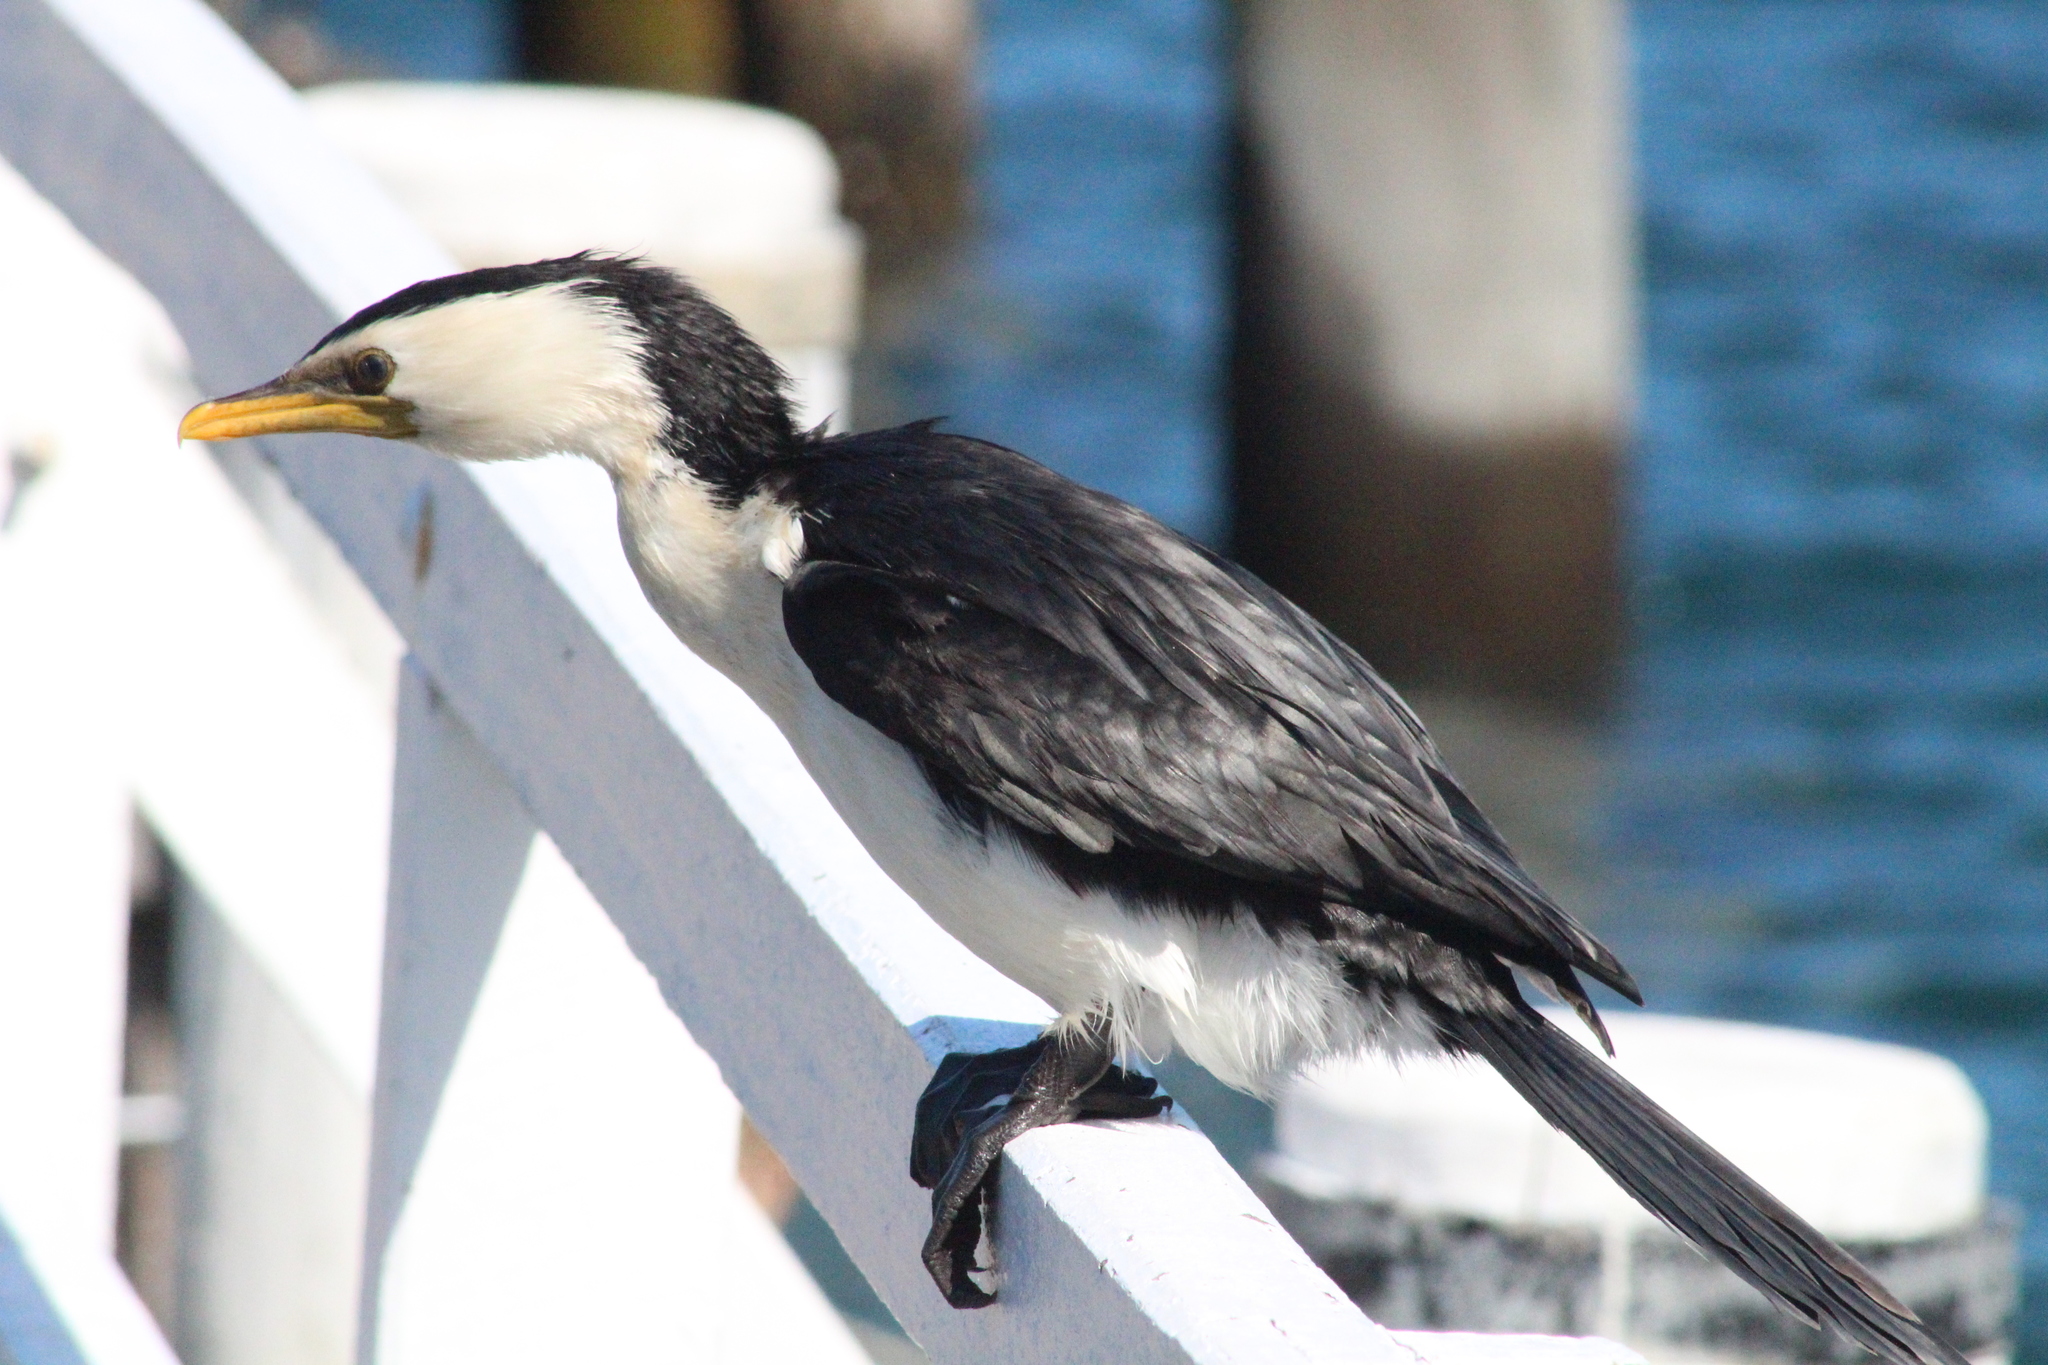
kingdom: Animalia
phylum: Chordata
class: Aves
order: Suliformes
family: Phalacrocoracidae
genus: Microcarbo
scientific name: Microcarbo melanoleucos
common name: Little pied cormorant
